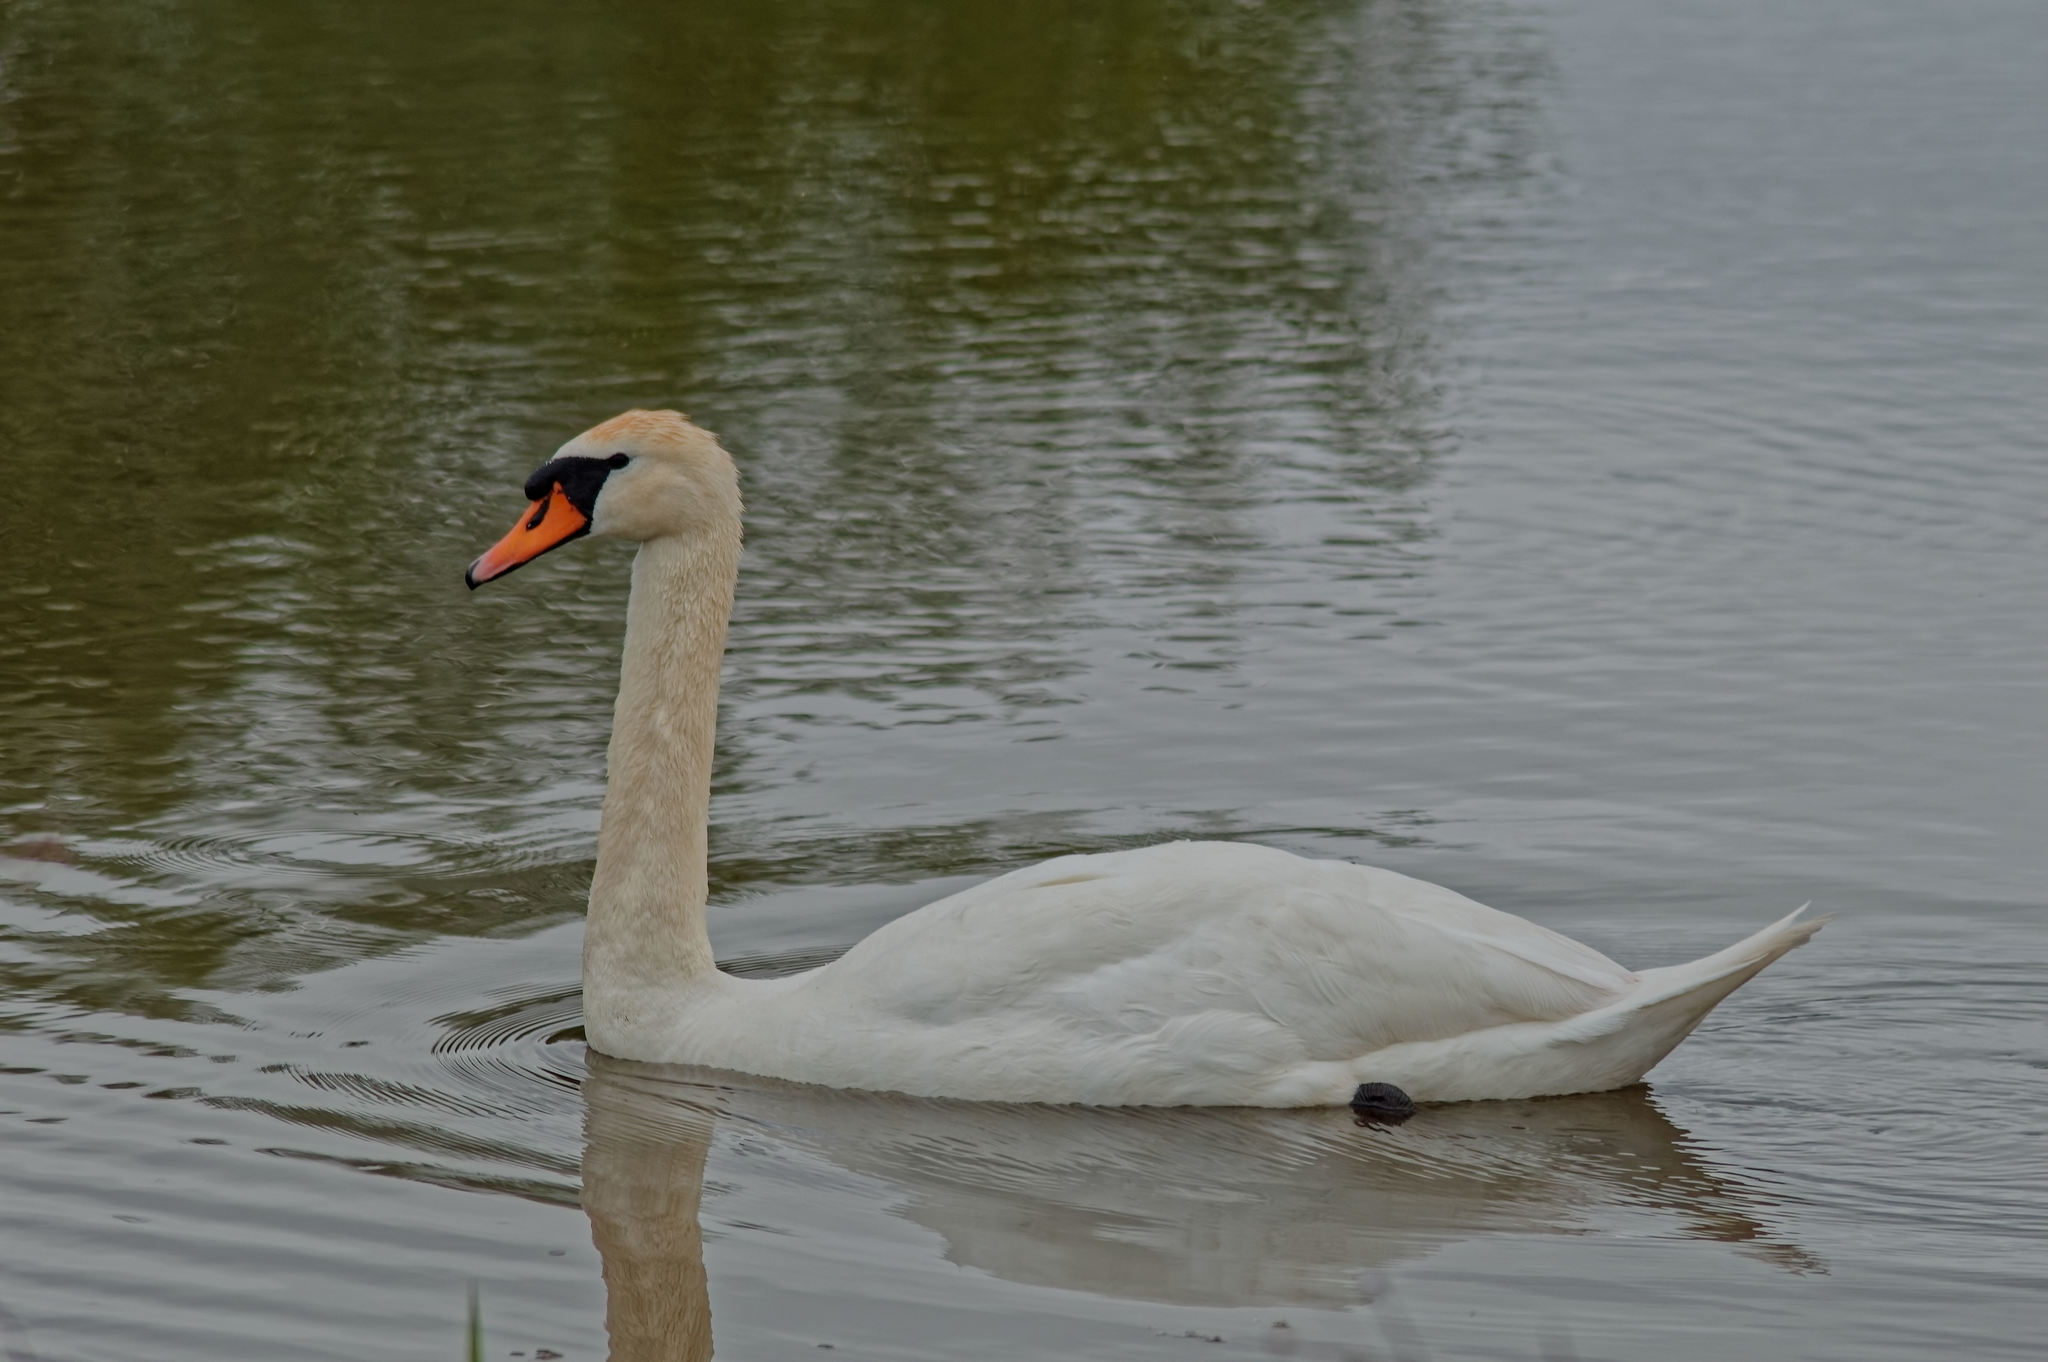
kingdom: Animalia
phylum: Chordata
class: Aves
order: Anseriformes
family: Anatidae
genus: Cygnus
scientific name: Cygnus olor
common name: Mute swan
